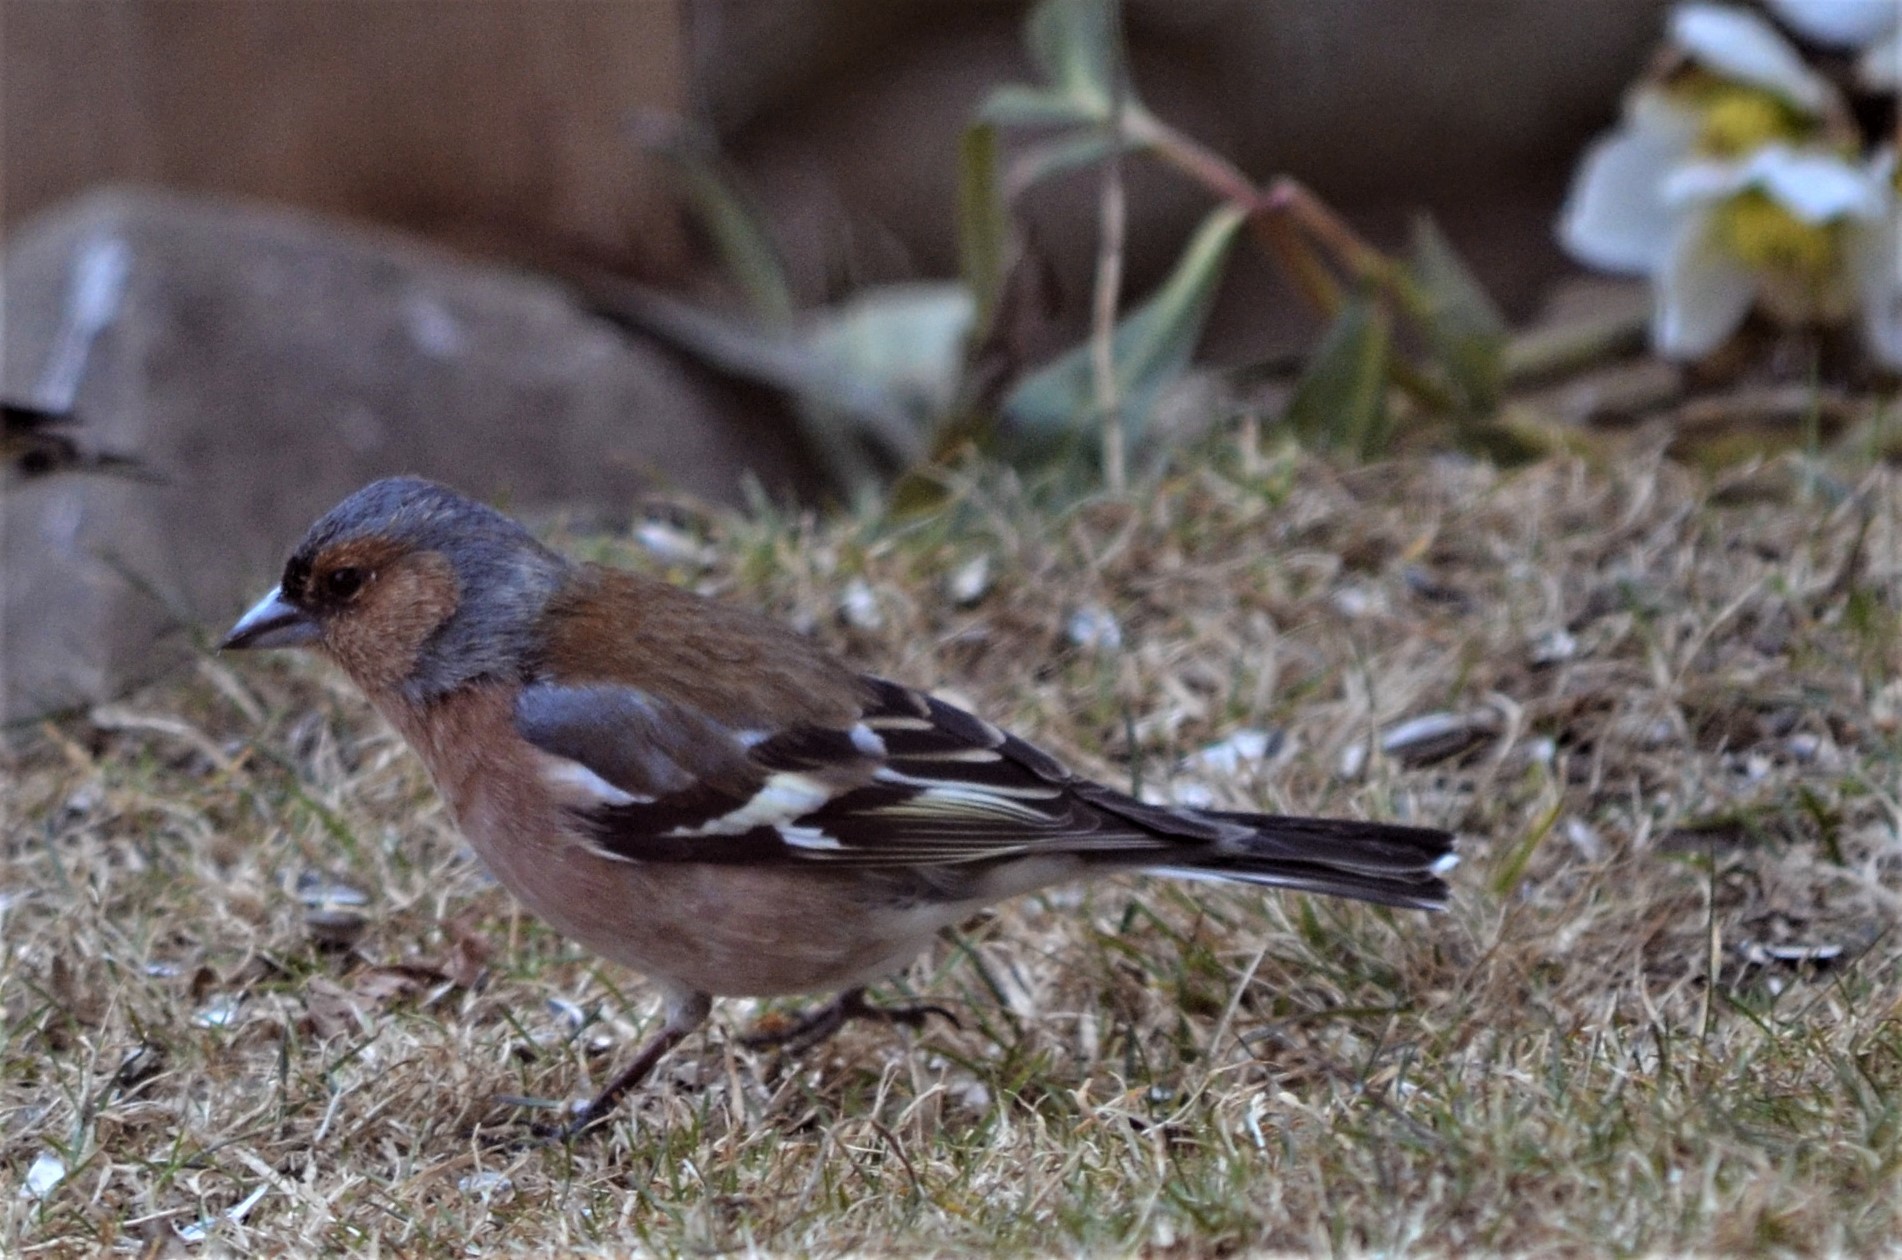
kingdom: Animalia
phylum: Chordata
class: Aves
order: Passeriformes
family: Fringillidae
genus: Fringilla
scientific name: Fringilla coelebs
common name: Common chaffinch
